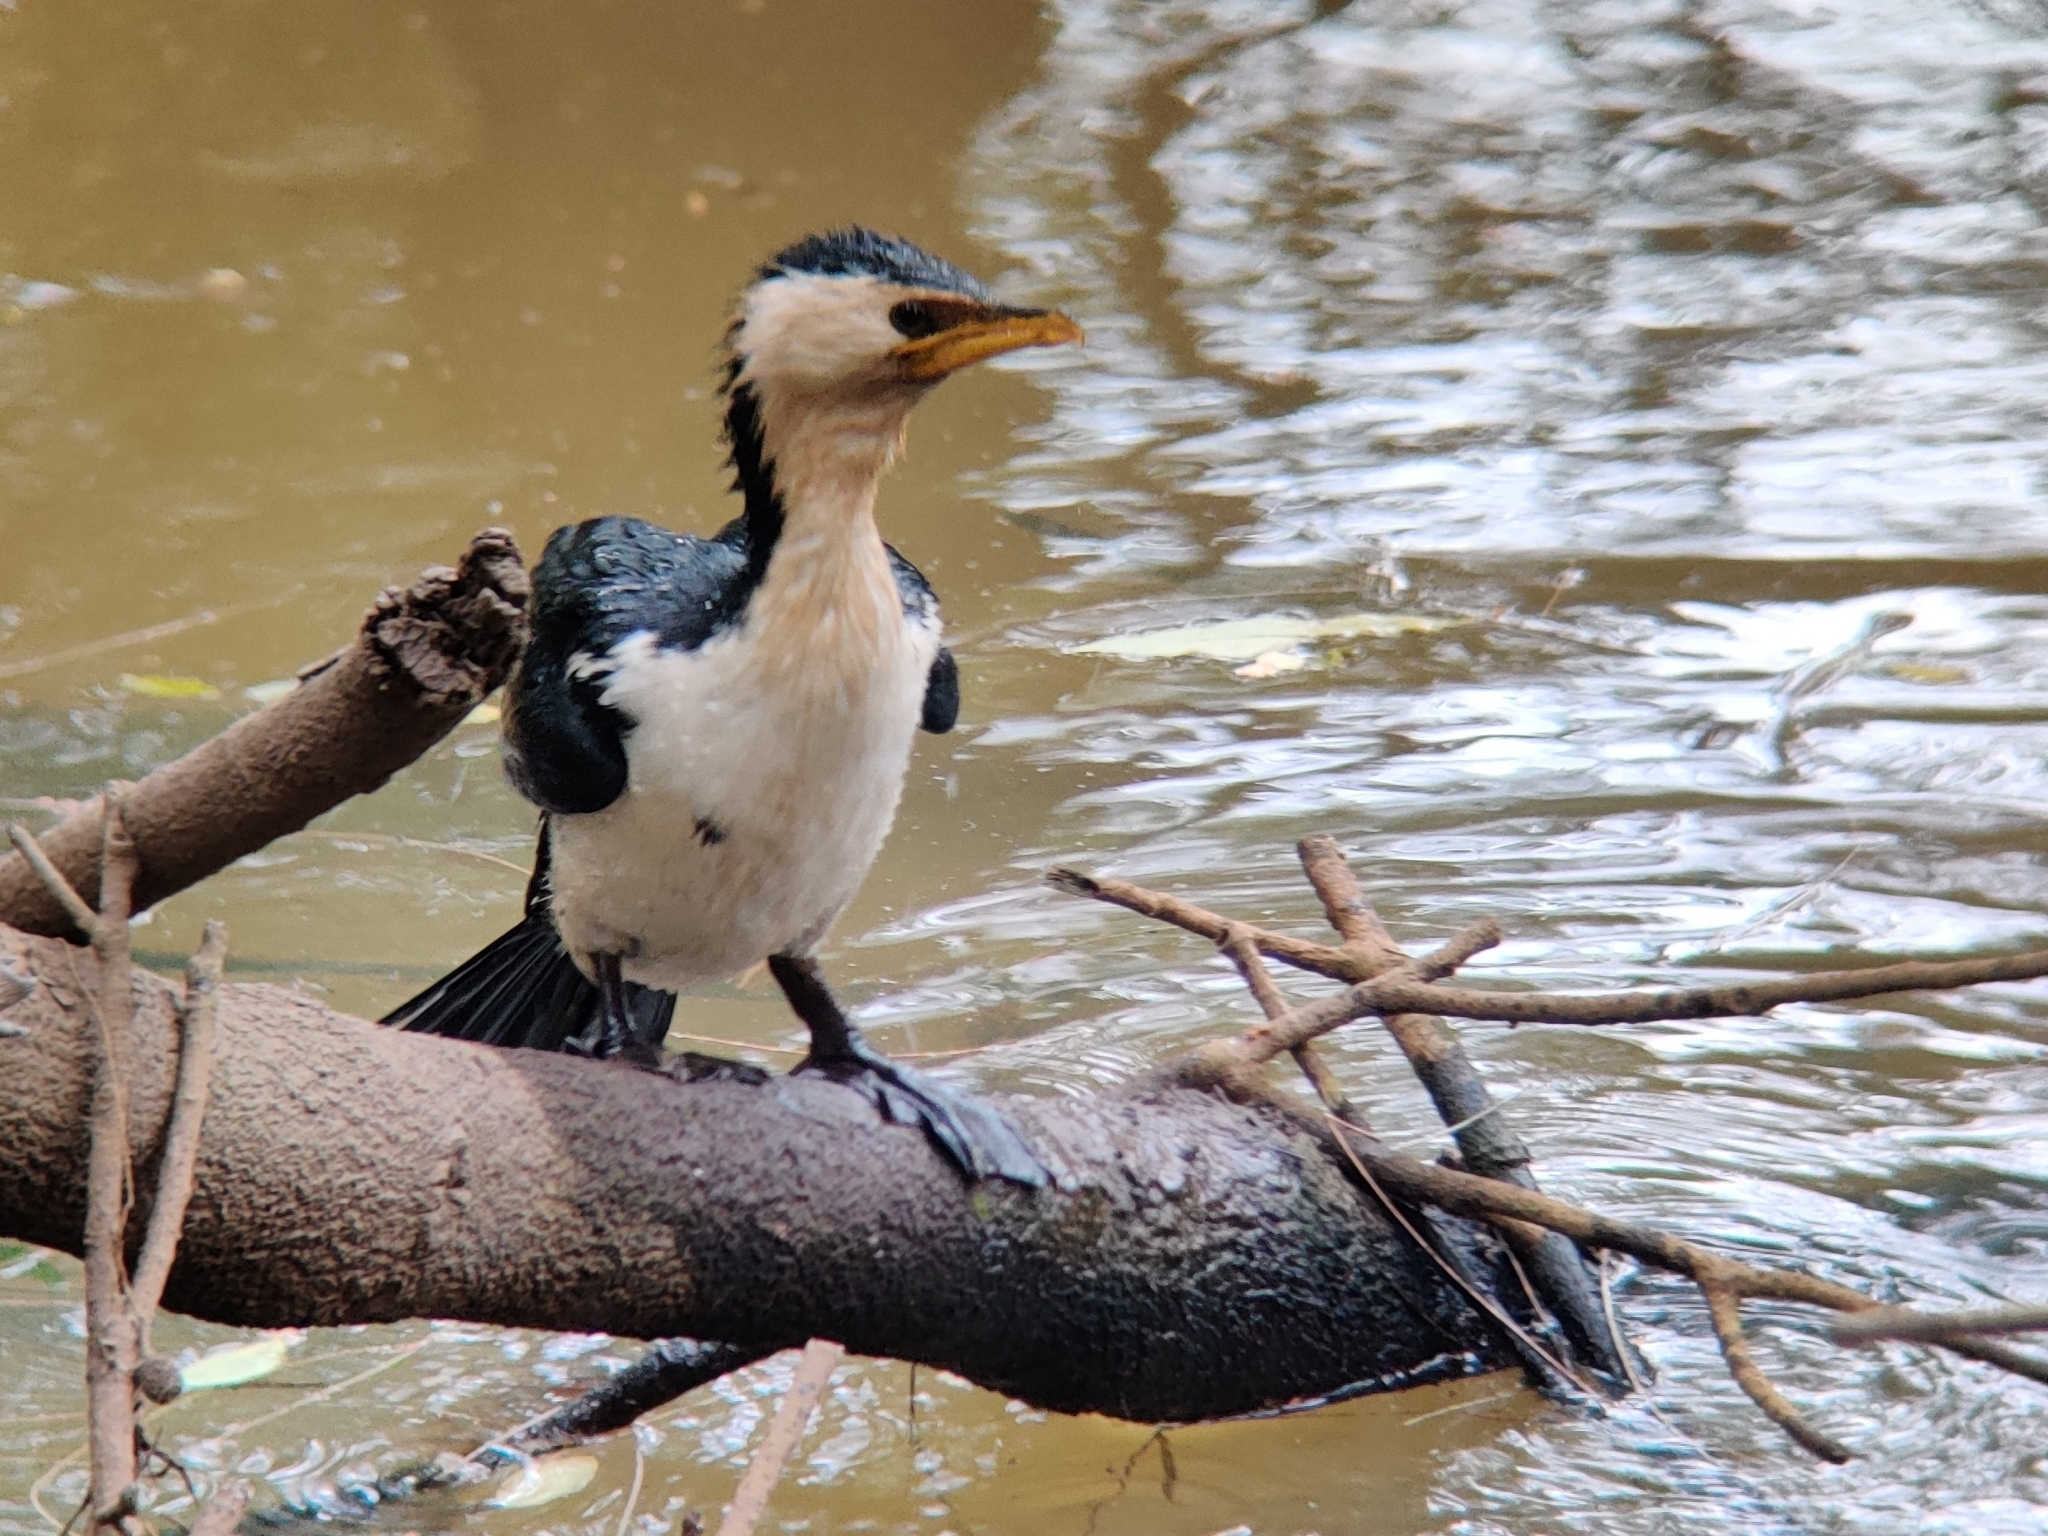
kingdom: Animalia
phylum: Chordata
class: Aves
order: Suliformes
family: Phalacrocoracidae
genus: Microcarbo
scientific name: Microcarbo melanoleucos
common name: Little pied cormorant
